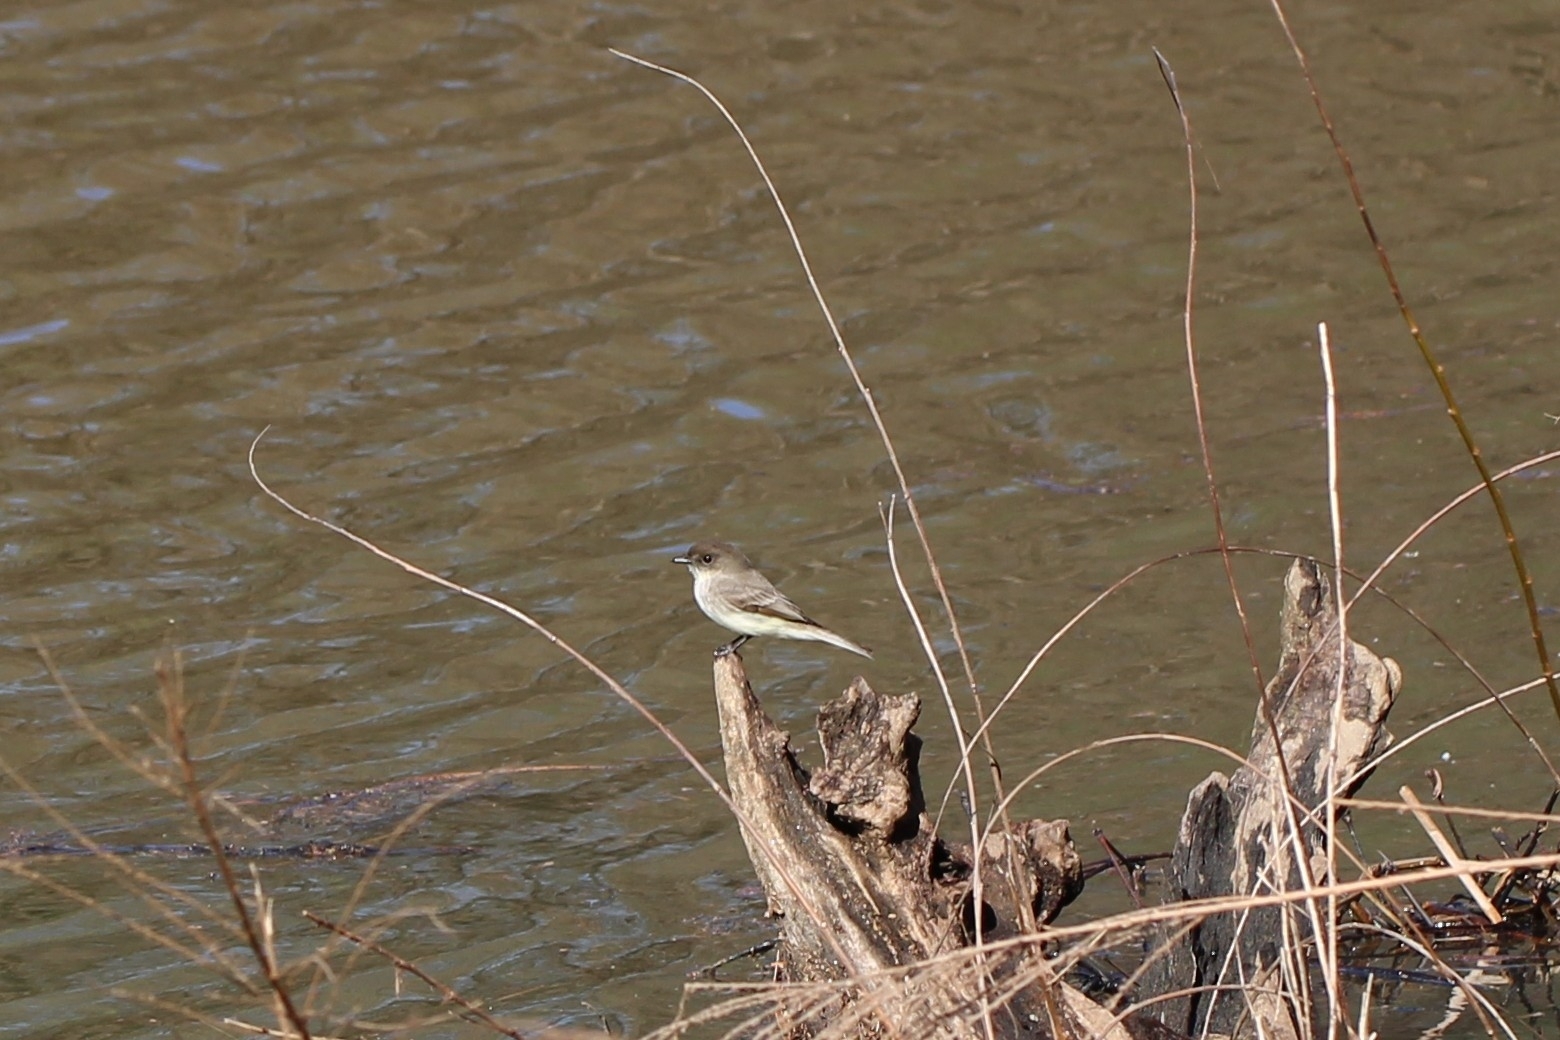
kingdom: Animalia
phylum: Chordata
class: Aves
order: Passeriformes
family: Tyrannidae
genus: Sayornis
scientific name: Sayornis phoebe
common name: Eastern phoebe
